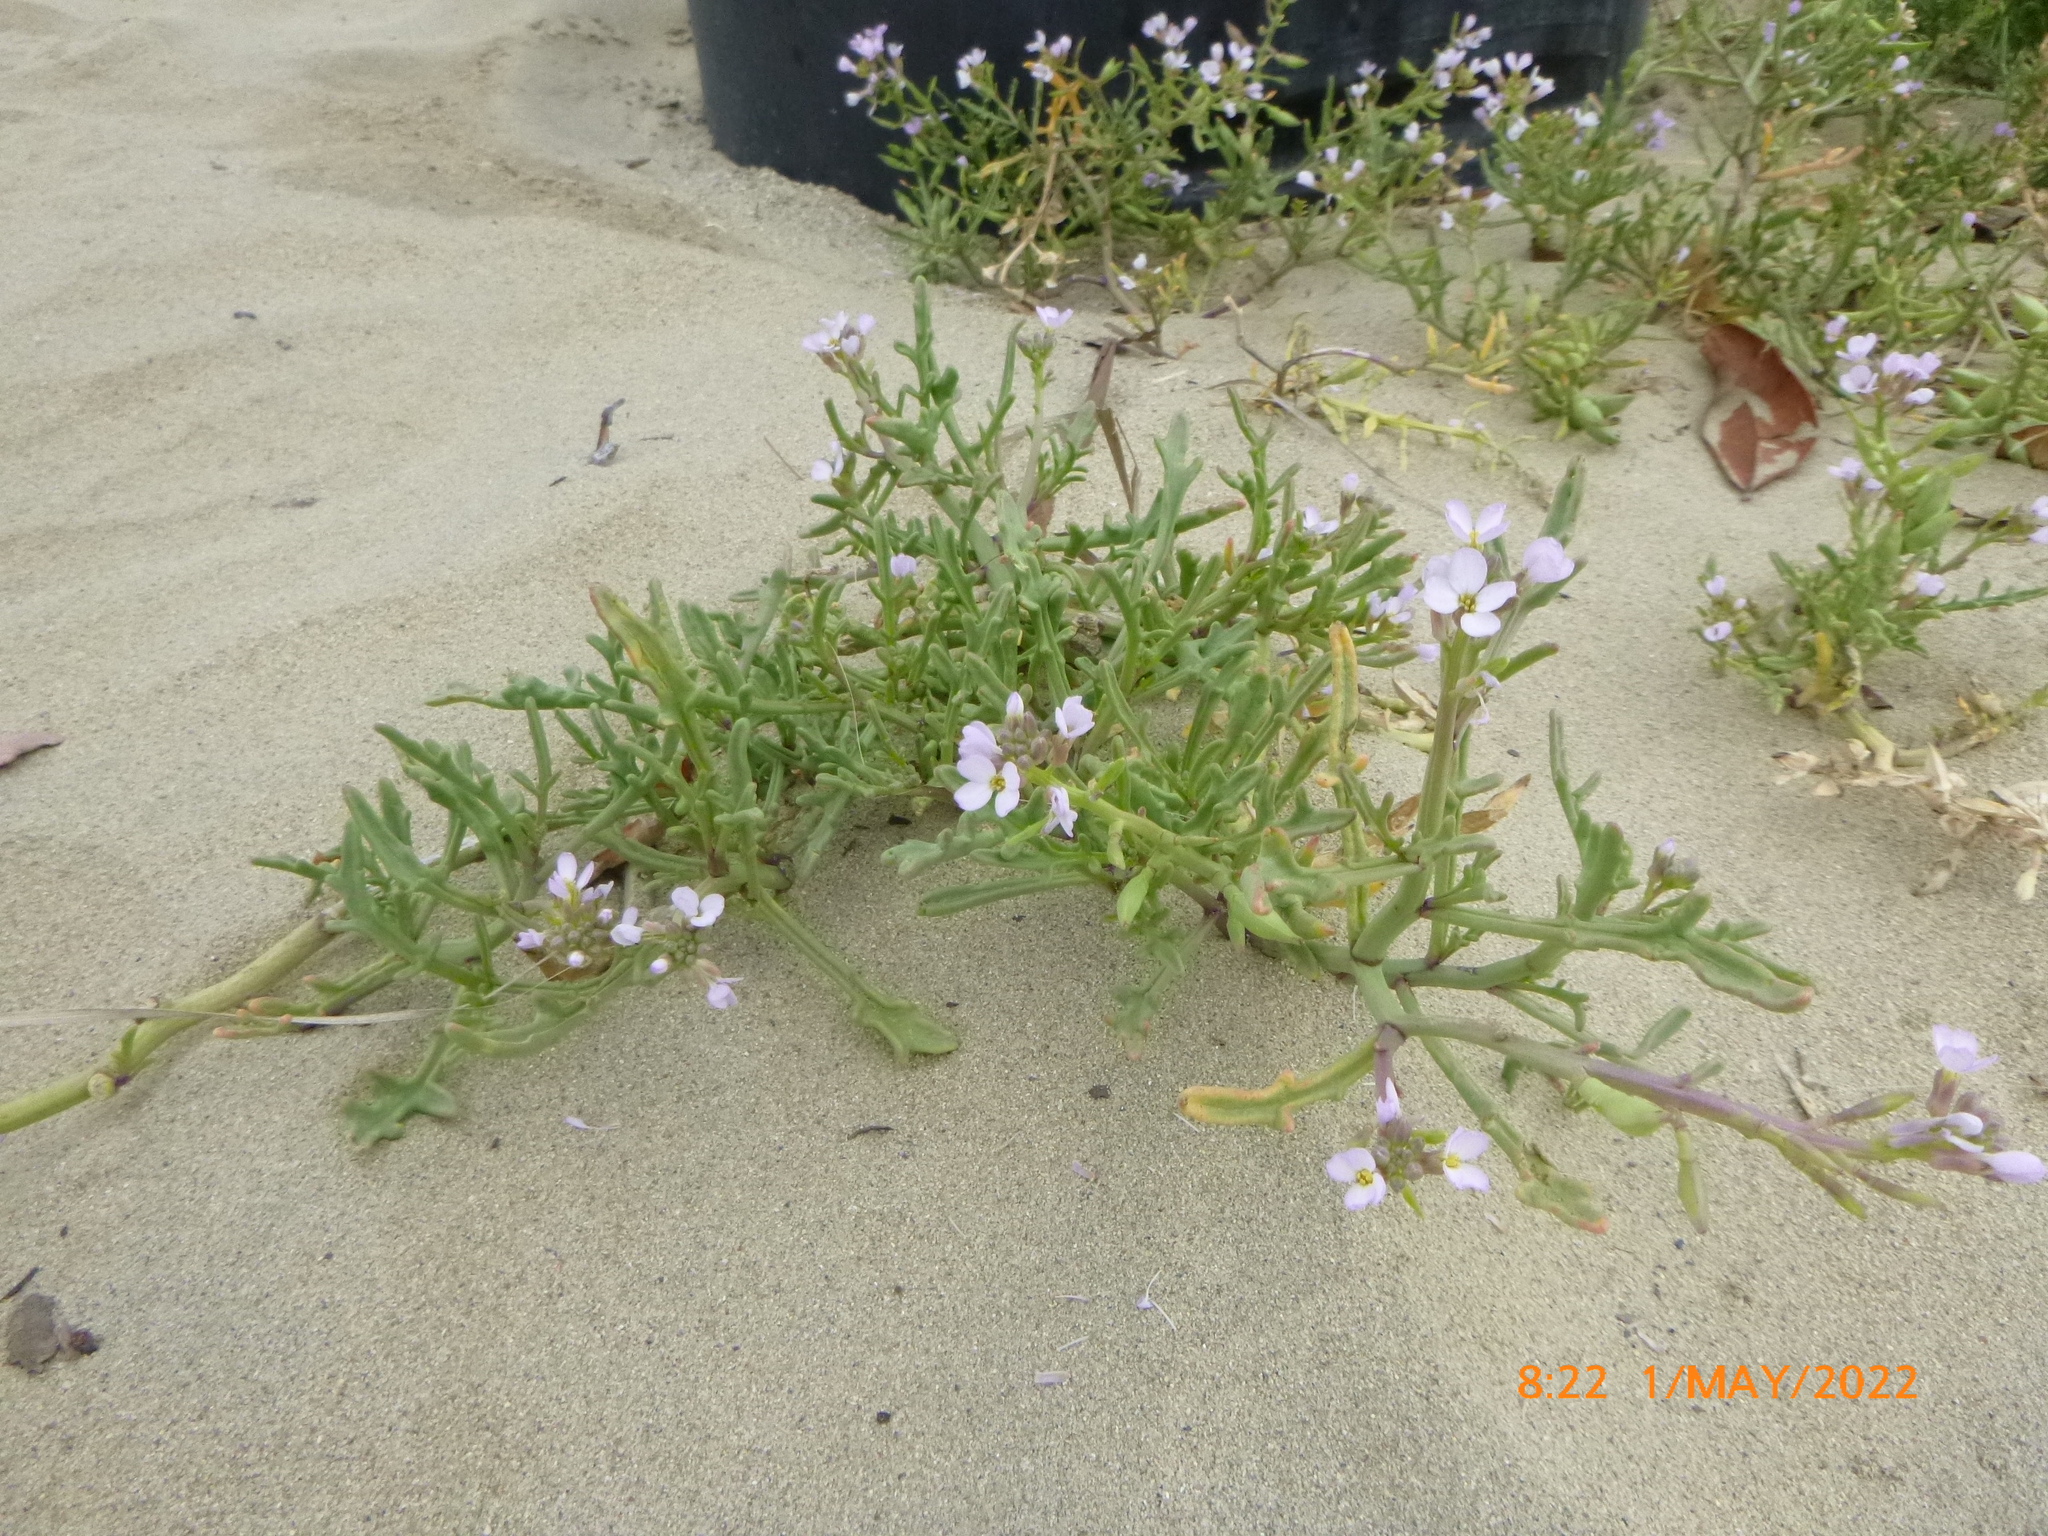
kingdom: Plantae
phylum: Tracheophyta
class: Magnoliopsida
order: Brassicales
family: Brassicaceae
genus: Cakile
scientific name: Cakile maritima
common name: Sea rocket
